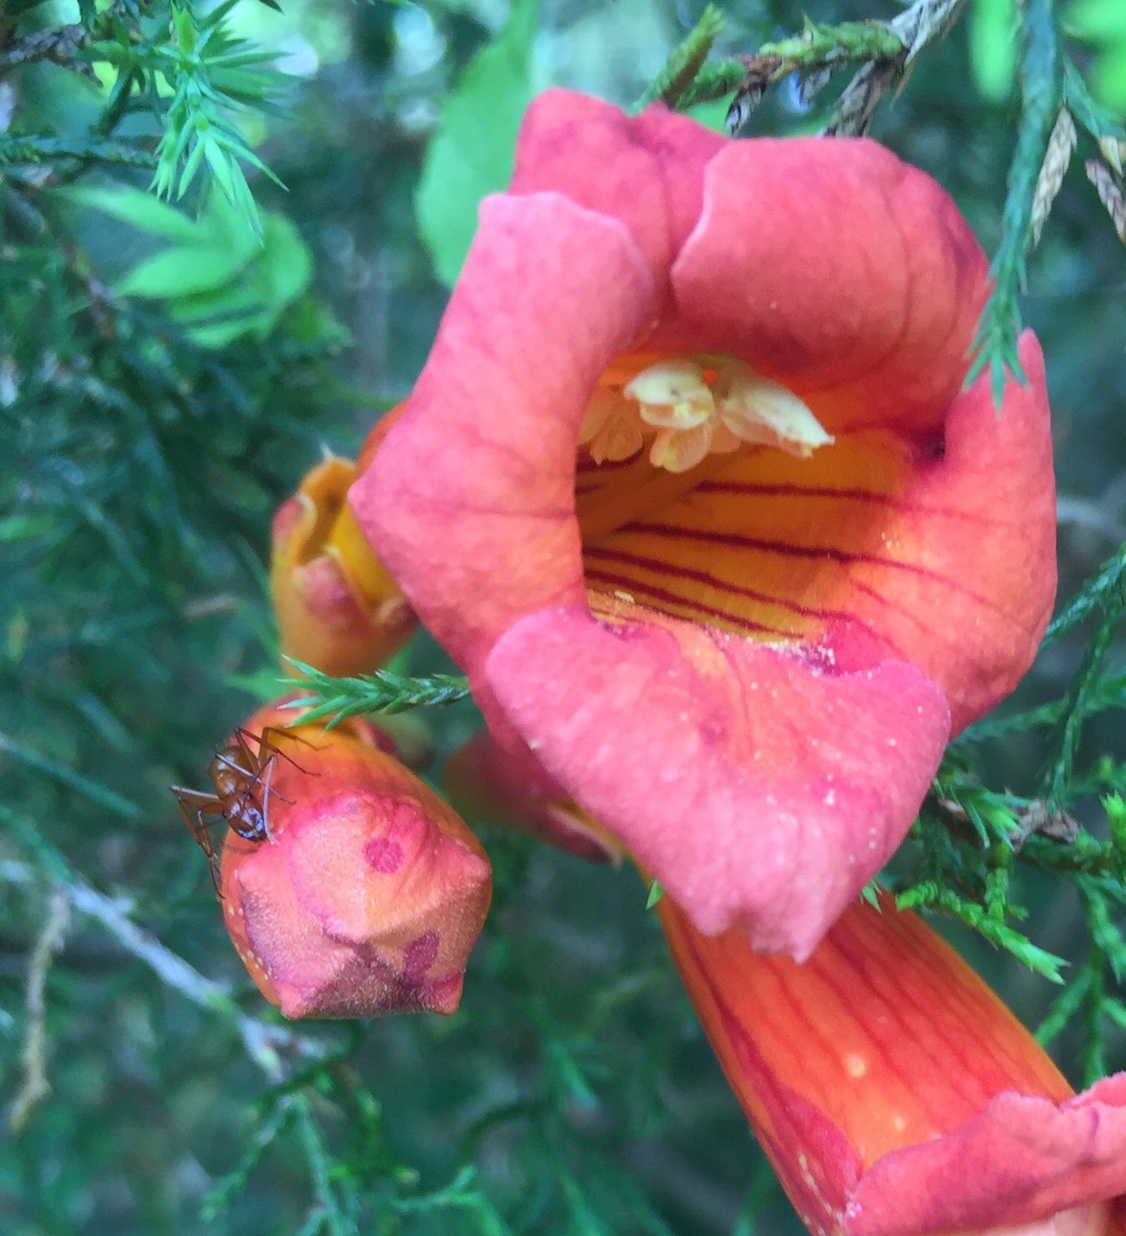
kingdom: Animalia
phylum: Arthropoda
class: Insecta
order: Hymenoptera
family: Formicidae
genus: Camponotus
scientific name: Camponotus castaneus
